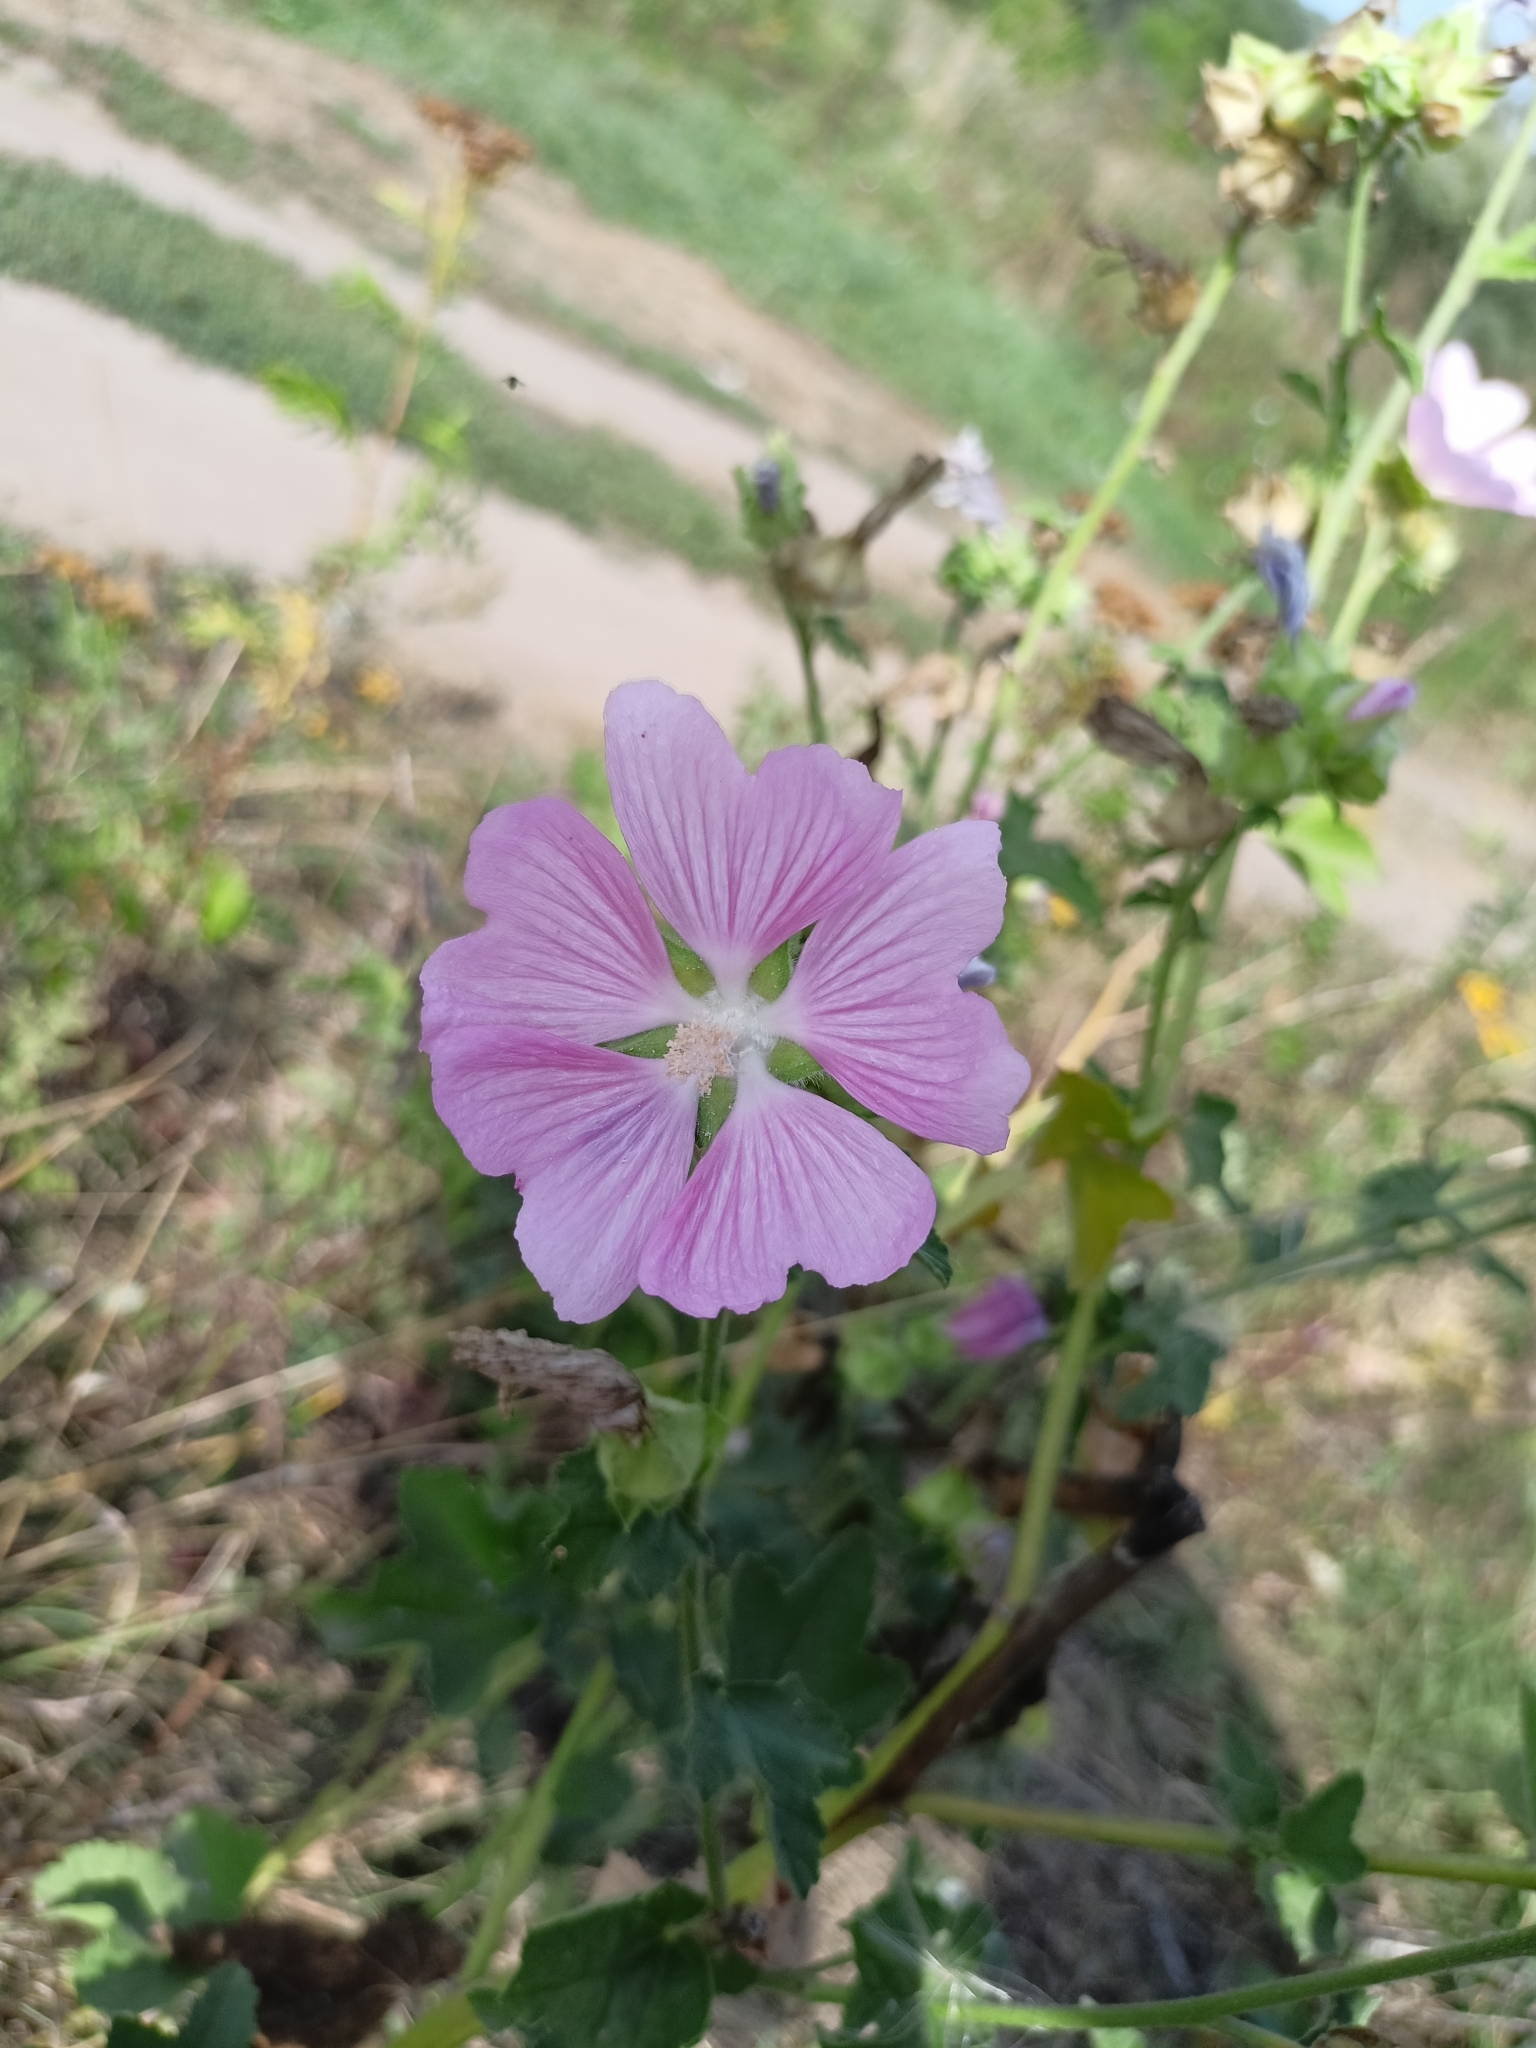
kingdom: Plantae
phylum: Tracheophyta
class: Magnoliopsida
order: Malvales
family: Malvaceae
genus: Malva
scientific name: Malva thuringiaca
